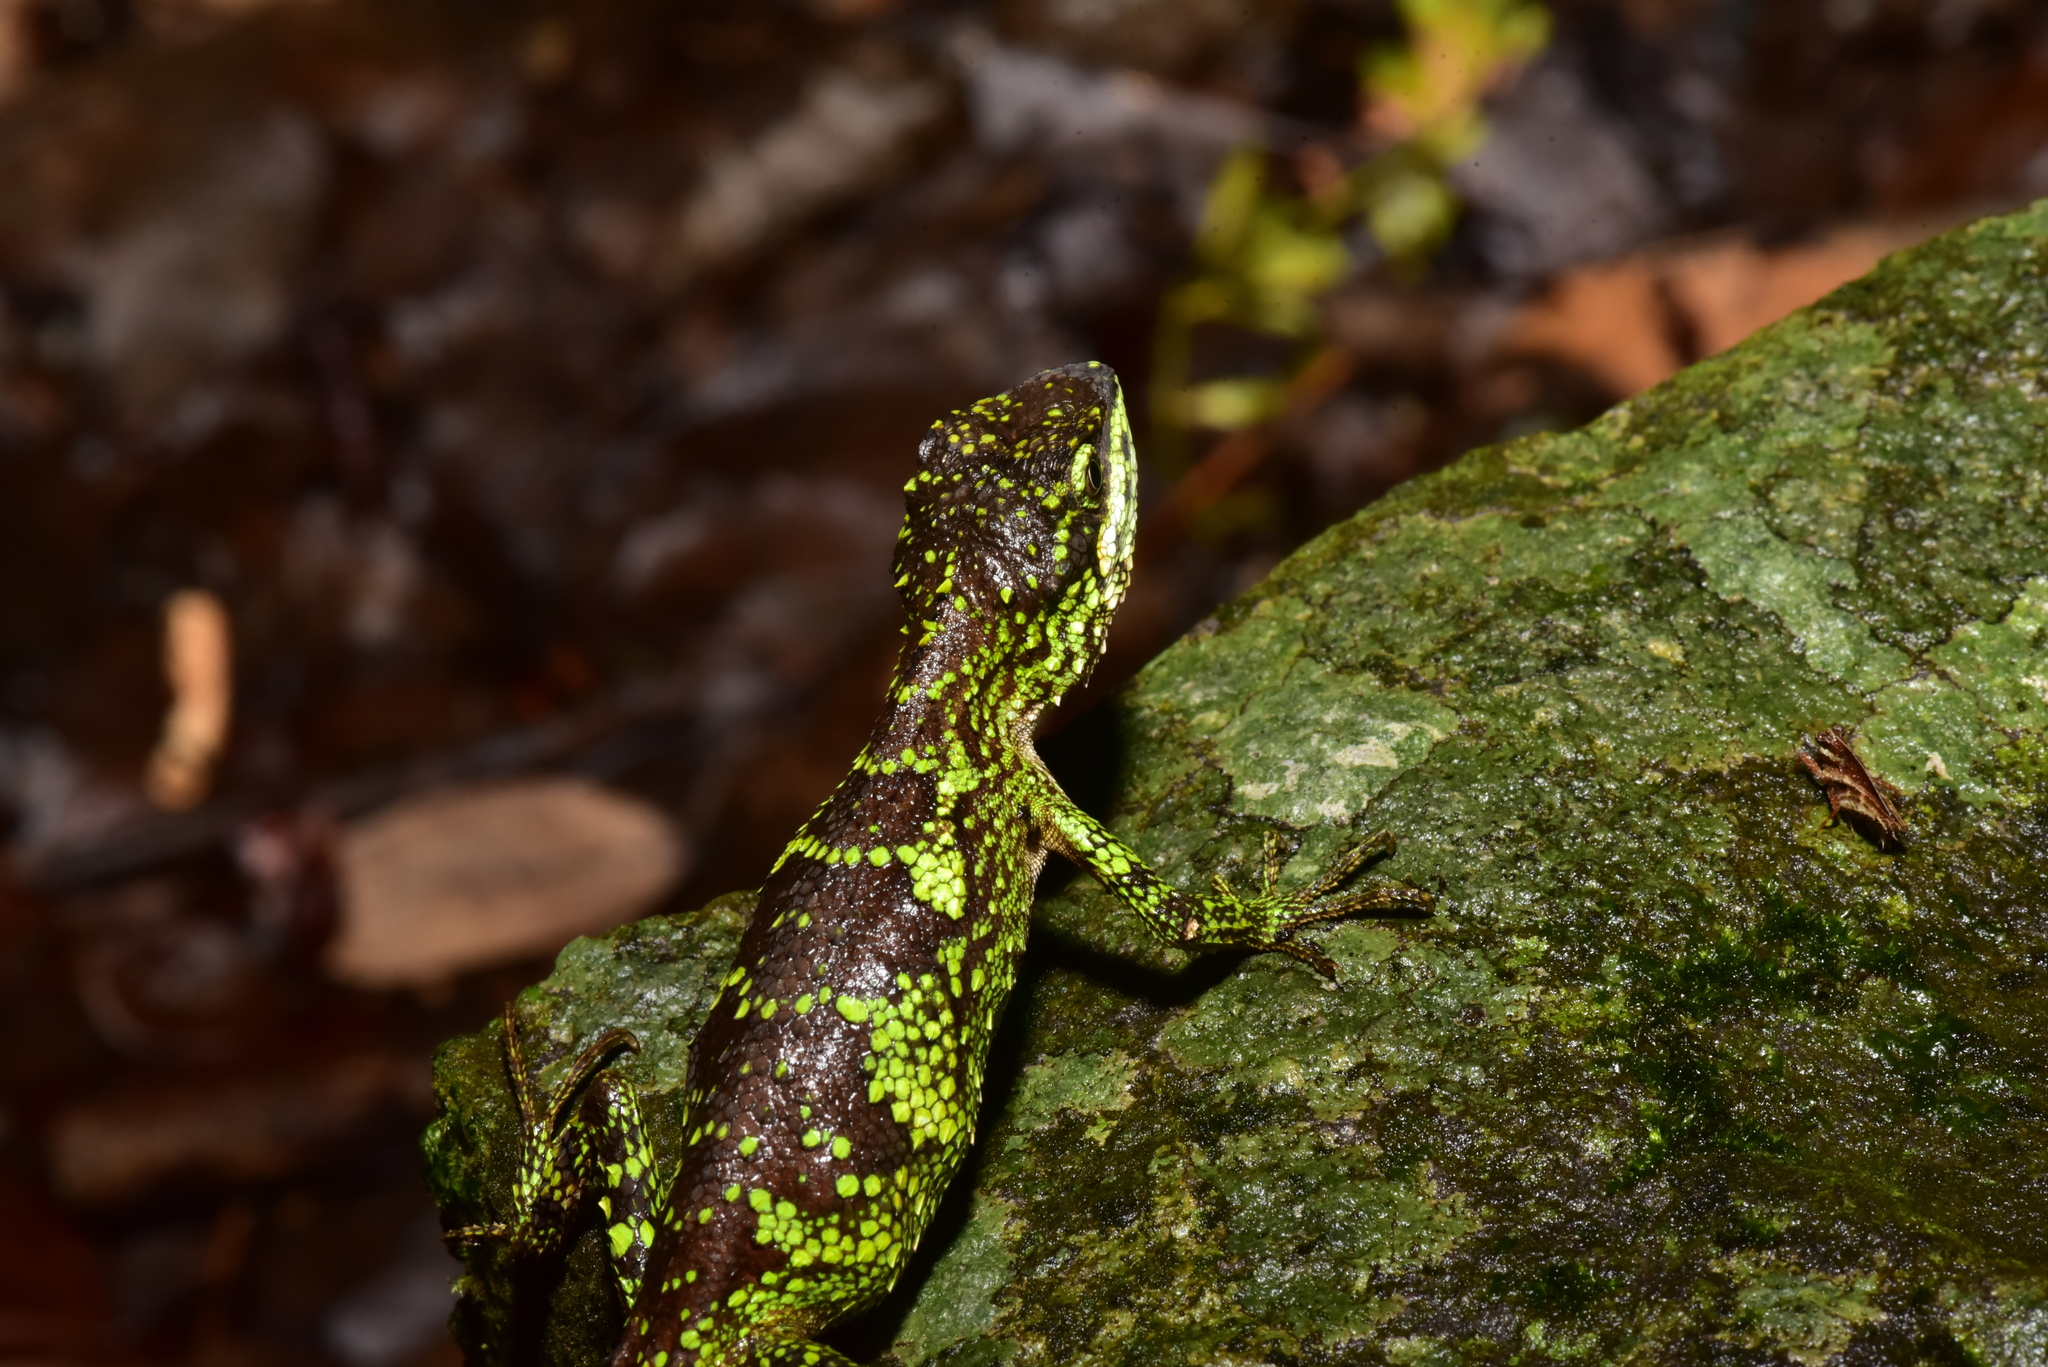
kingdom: Fungi
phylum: Basidiomycota
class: Agaricomycetes
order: Boletales
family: Diplocystidiaceae
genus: Diploderma
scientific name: Diploderma polygonatum
